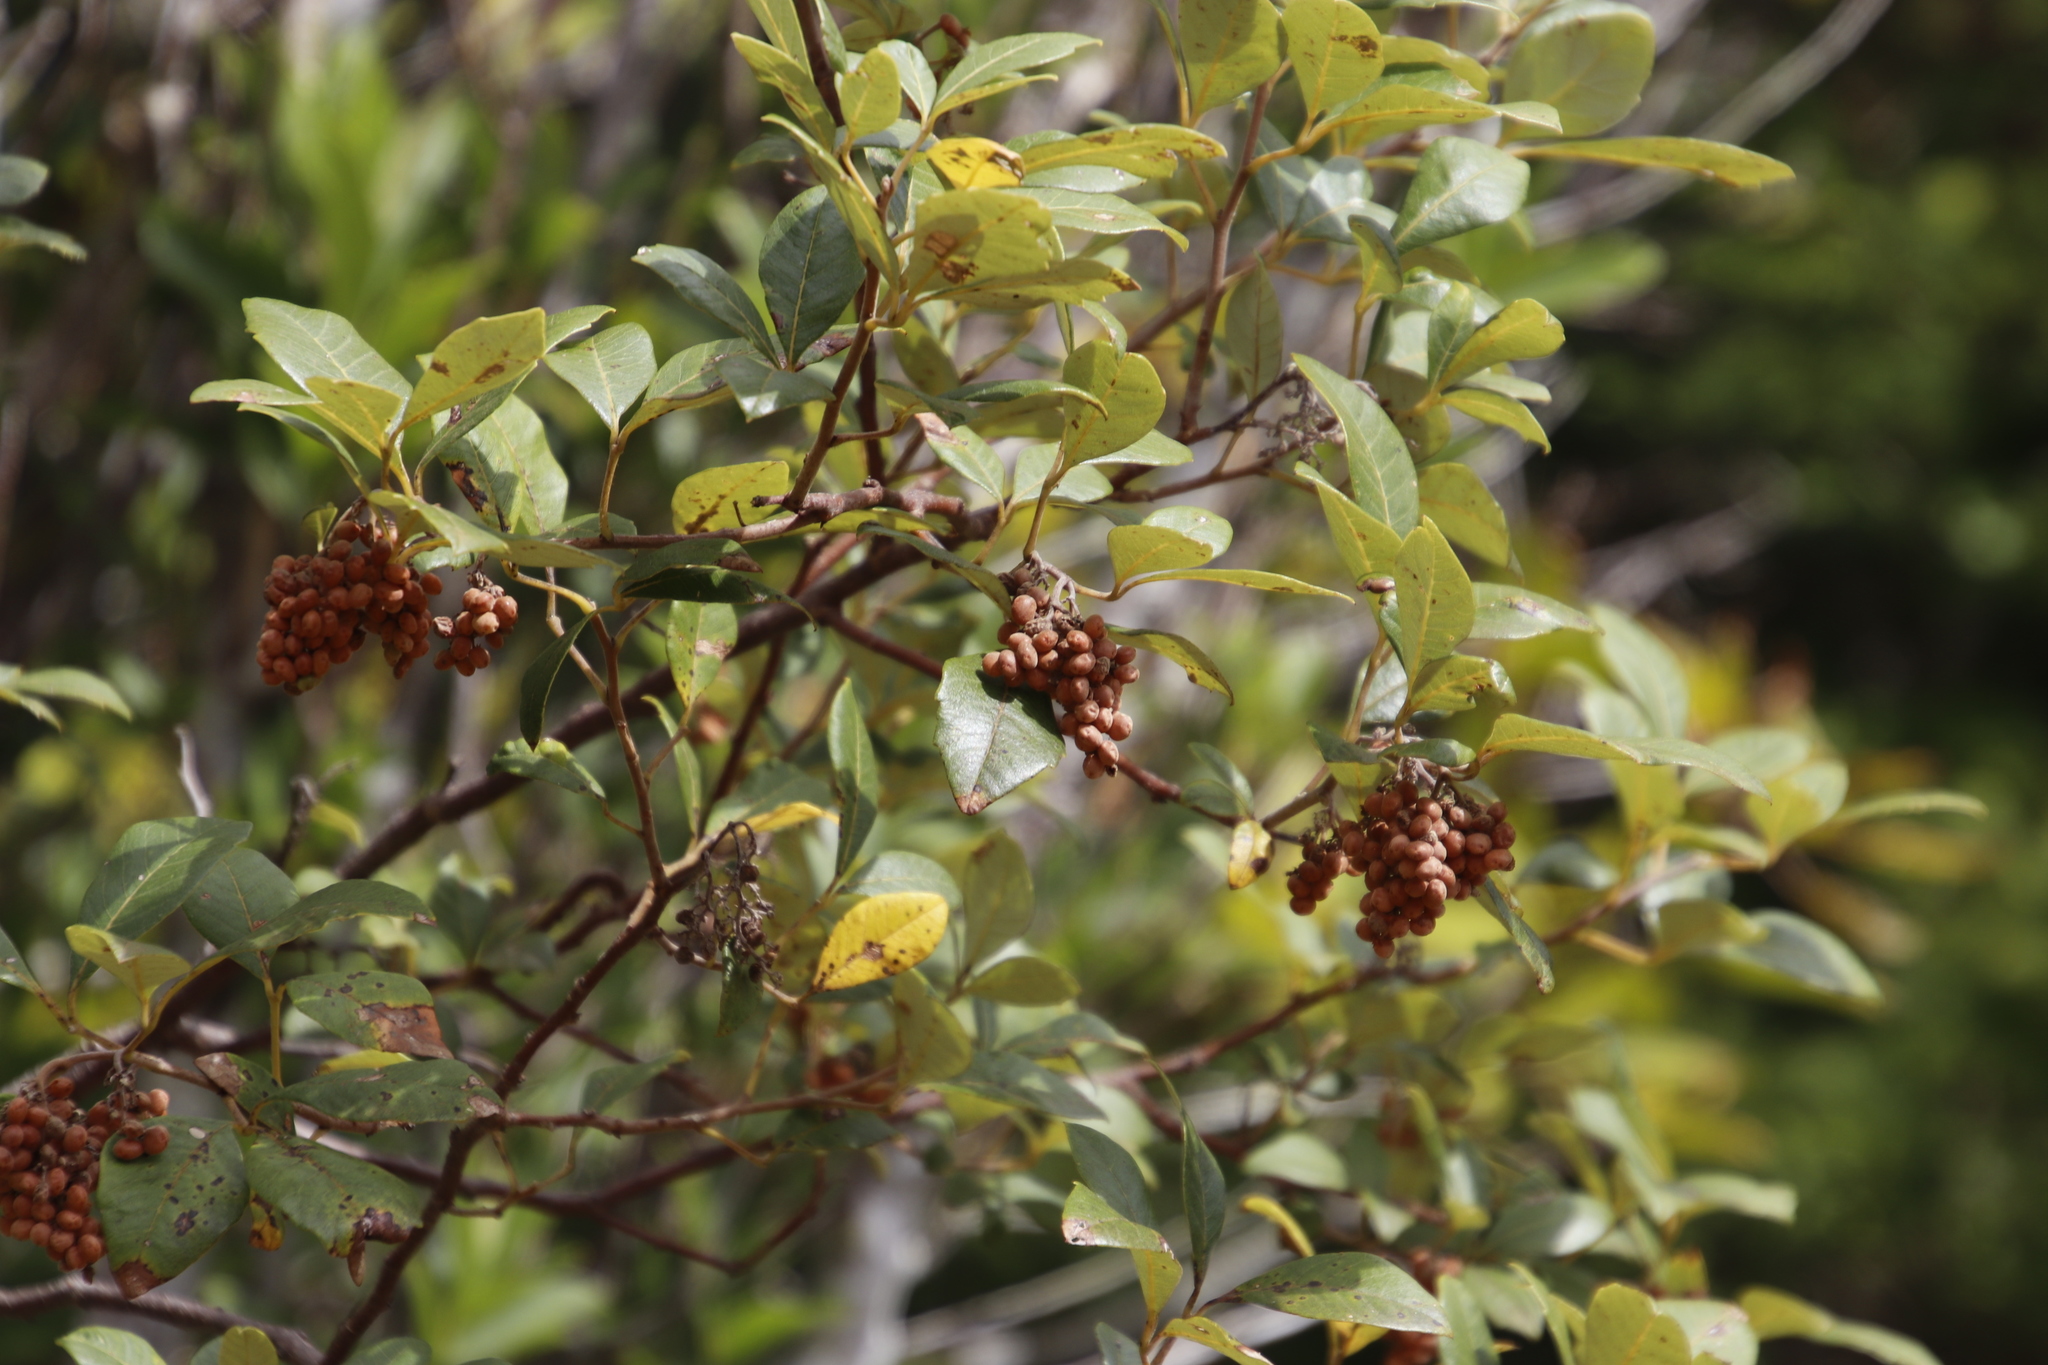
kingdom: Plantae
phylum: Tracheophyta
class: Magnoliopsida
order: Sapindales
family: Anacardiaceae
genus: Searsia
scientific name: Searsia tomentosa
